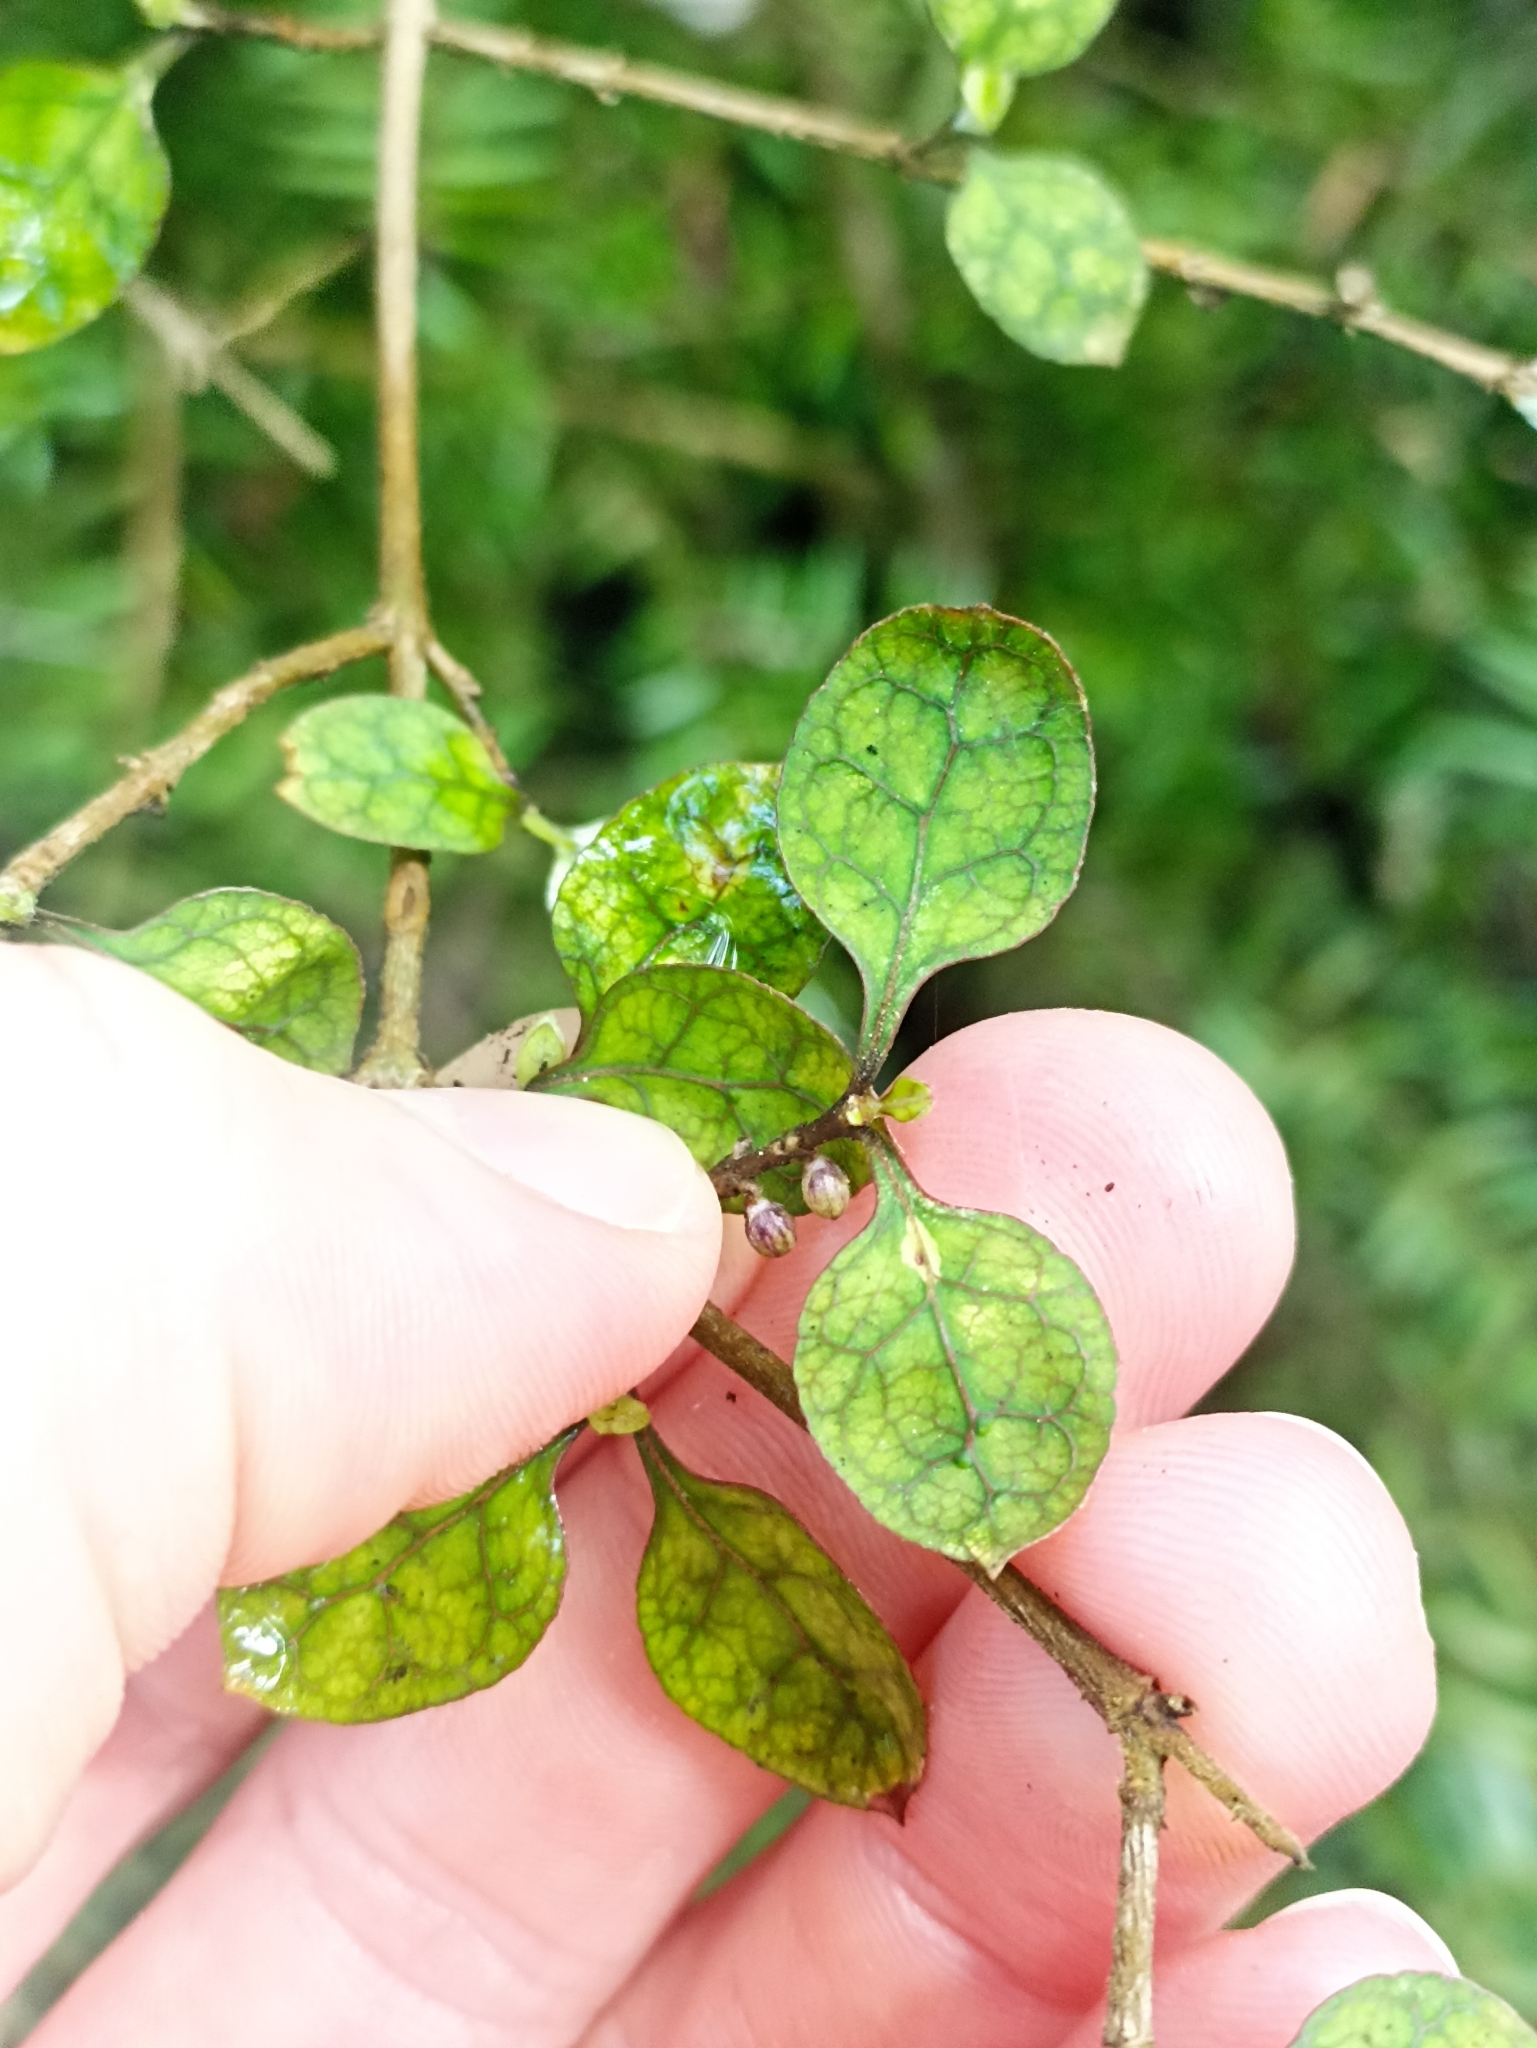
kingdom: Plantae
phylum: Tracheophyta
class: Magnoliopsida
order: Gentianales
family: Rubiaceae
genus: Coprosma
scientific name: Coprosma areolata
